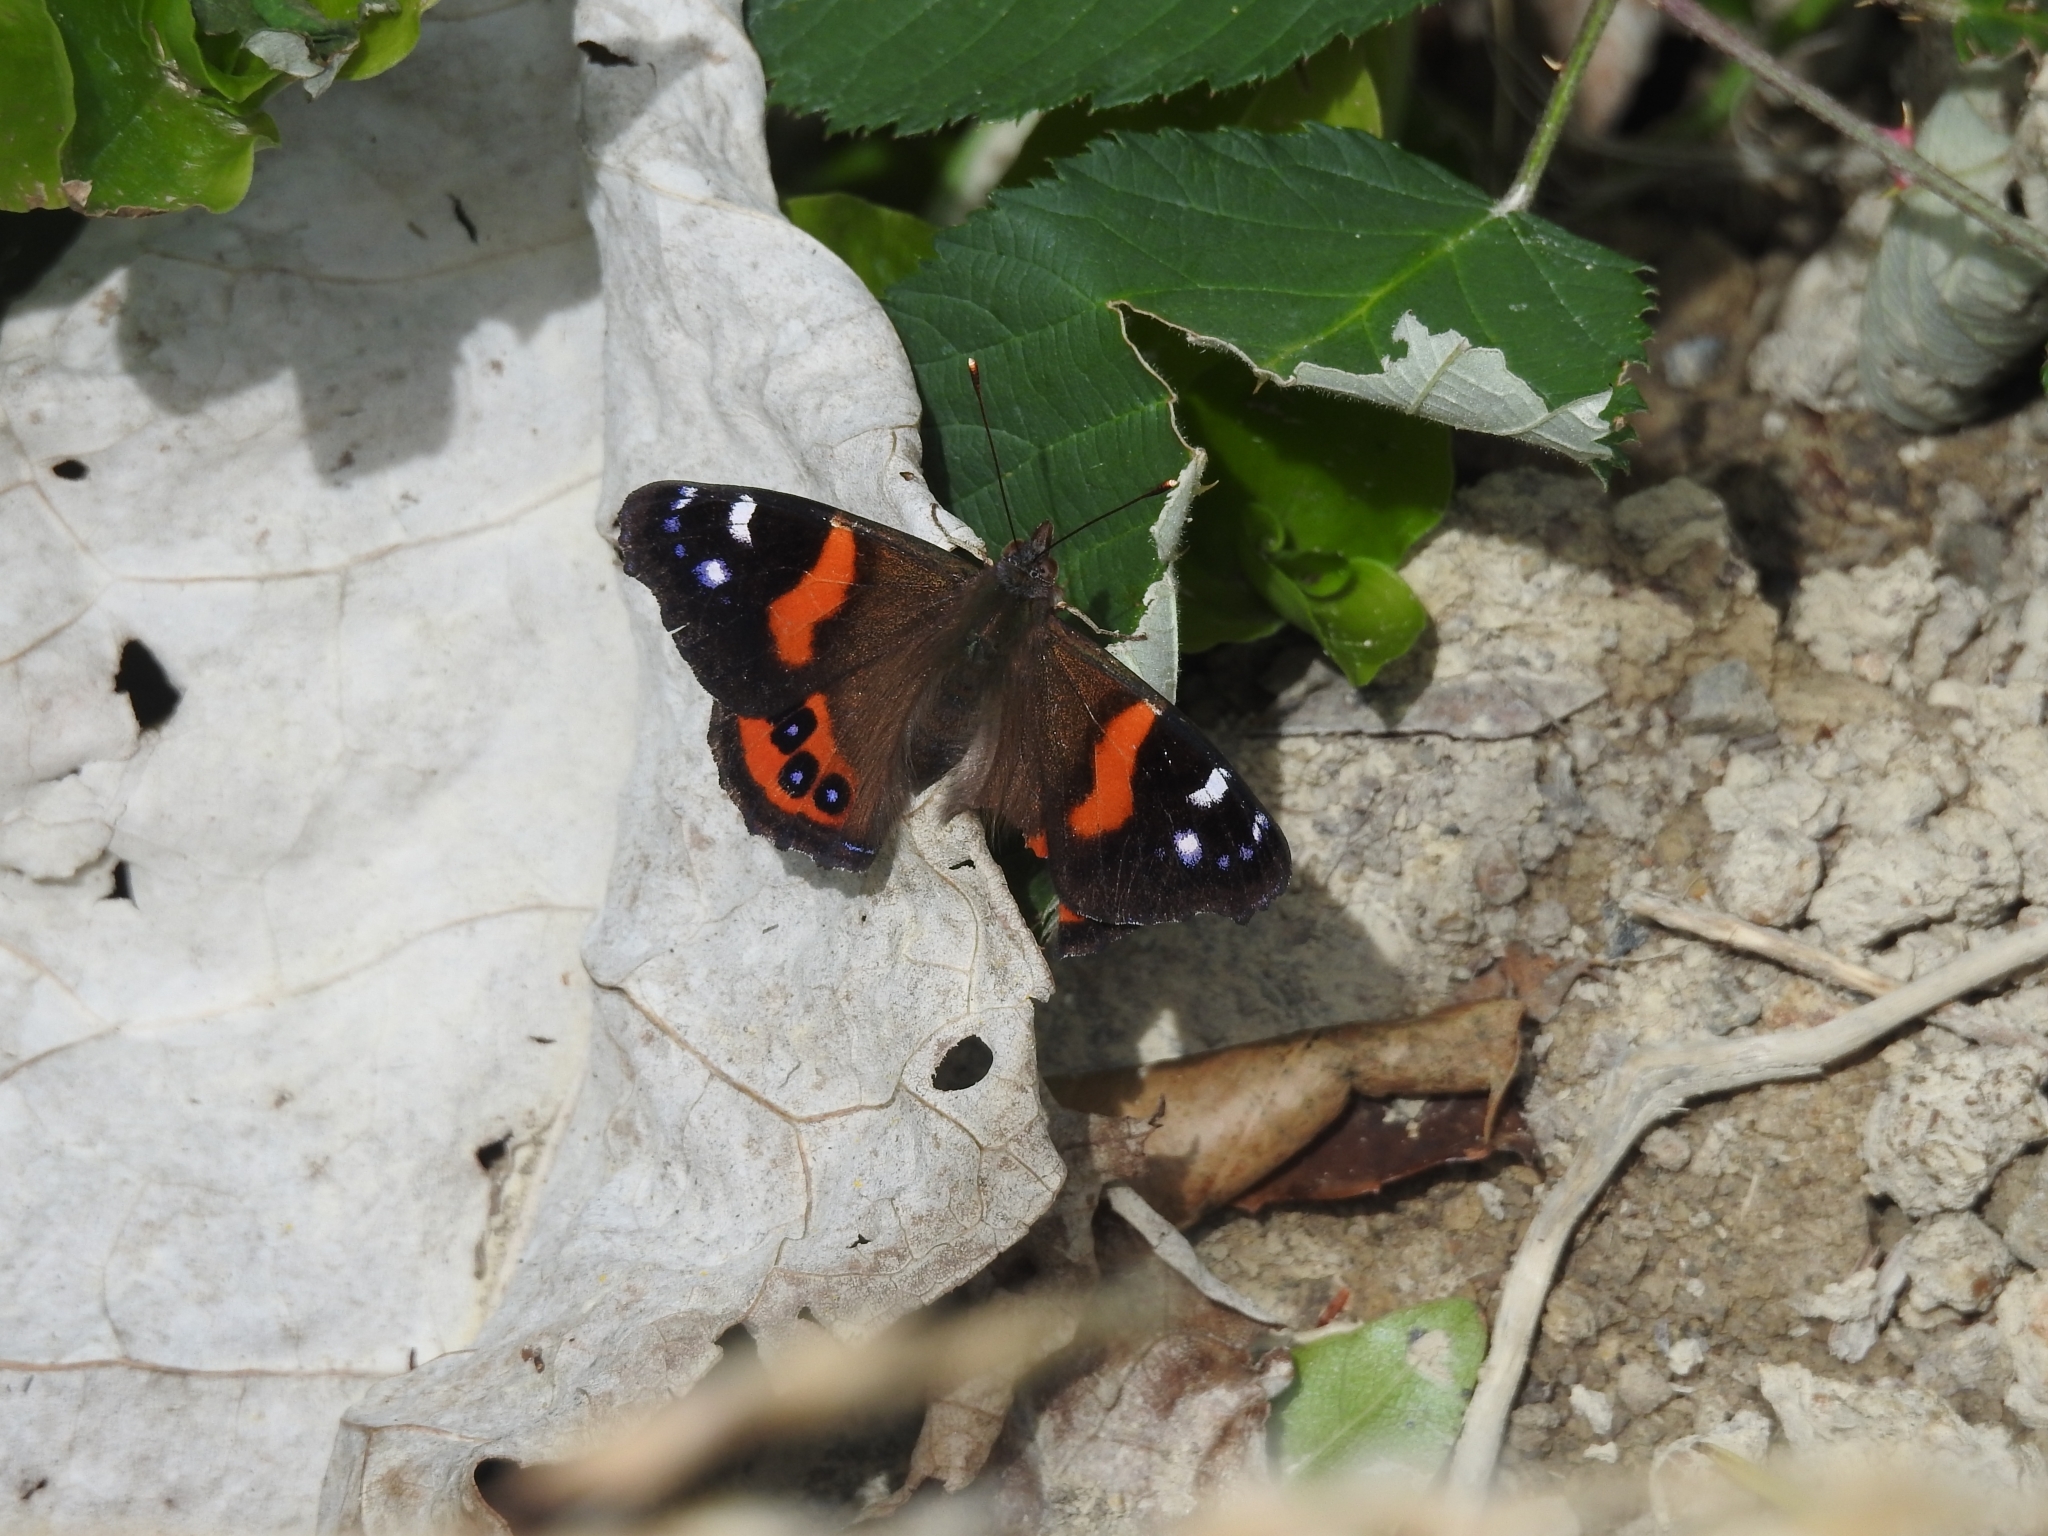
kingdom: Animalia
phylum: Arthropoda
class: Insecta
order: Lepidoptera
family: Nymphalidae
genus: Vanessa
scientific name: Vanessa gonerilla
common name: New zealand red admiral
